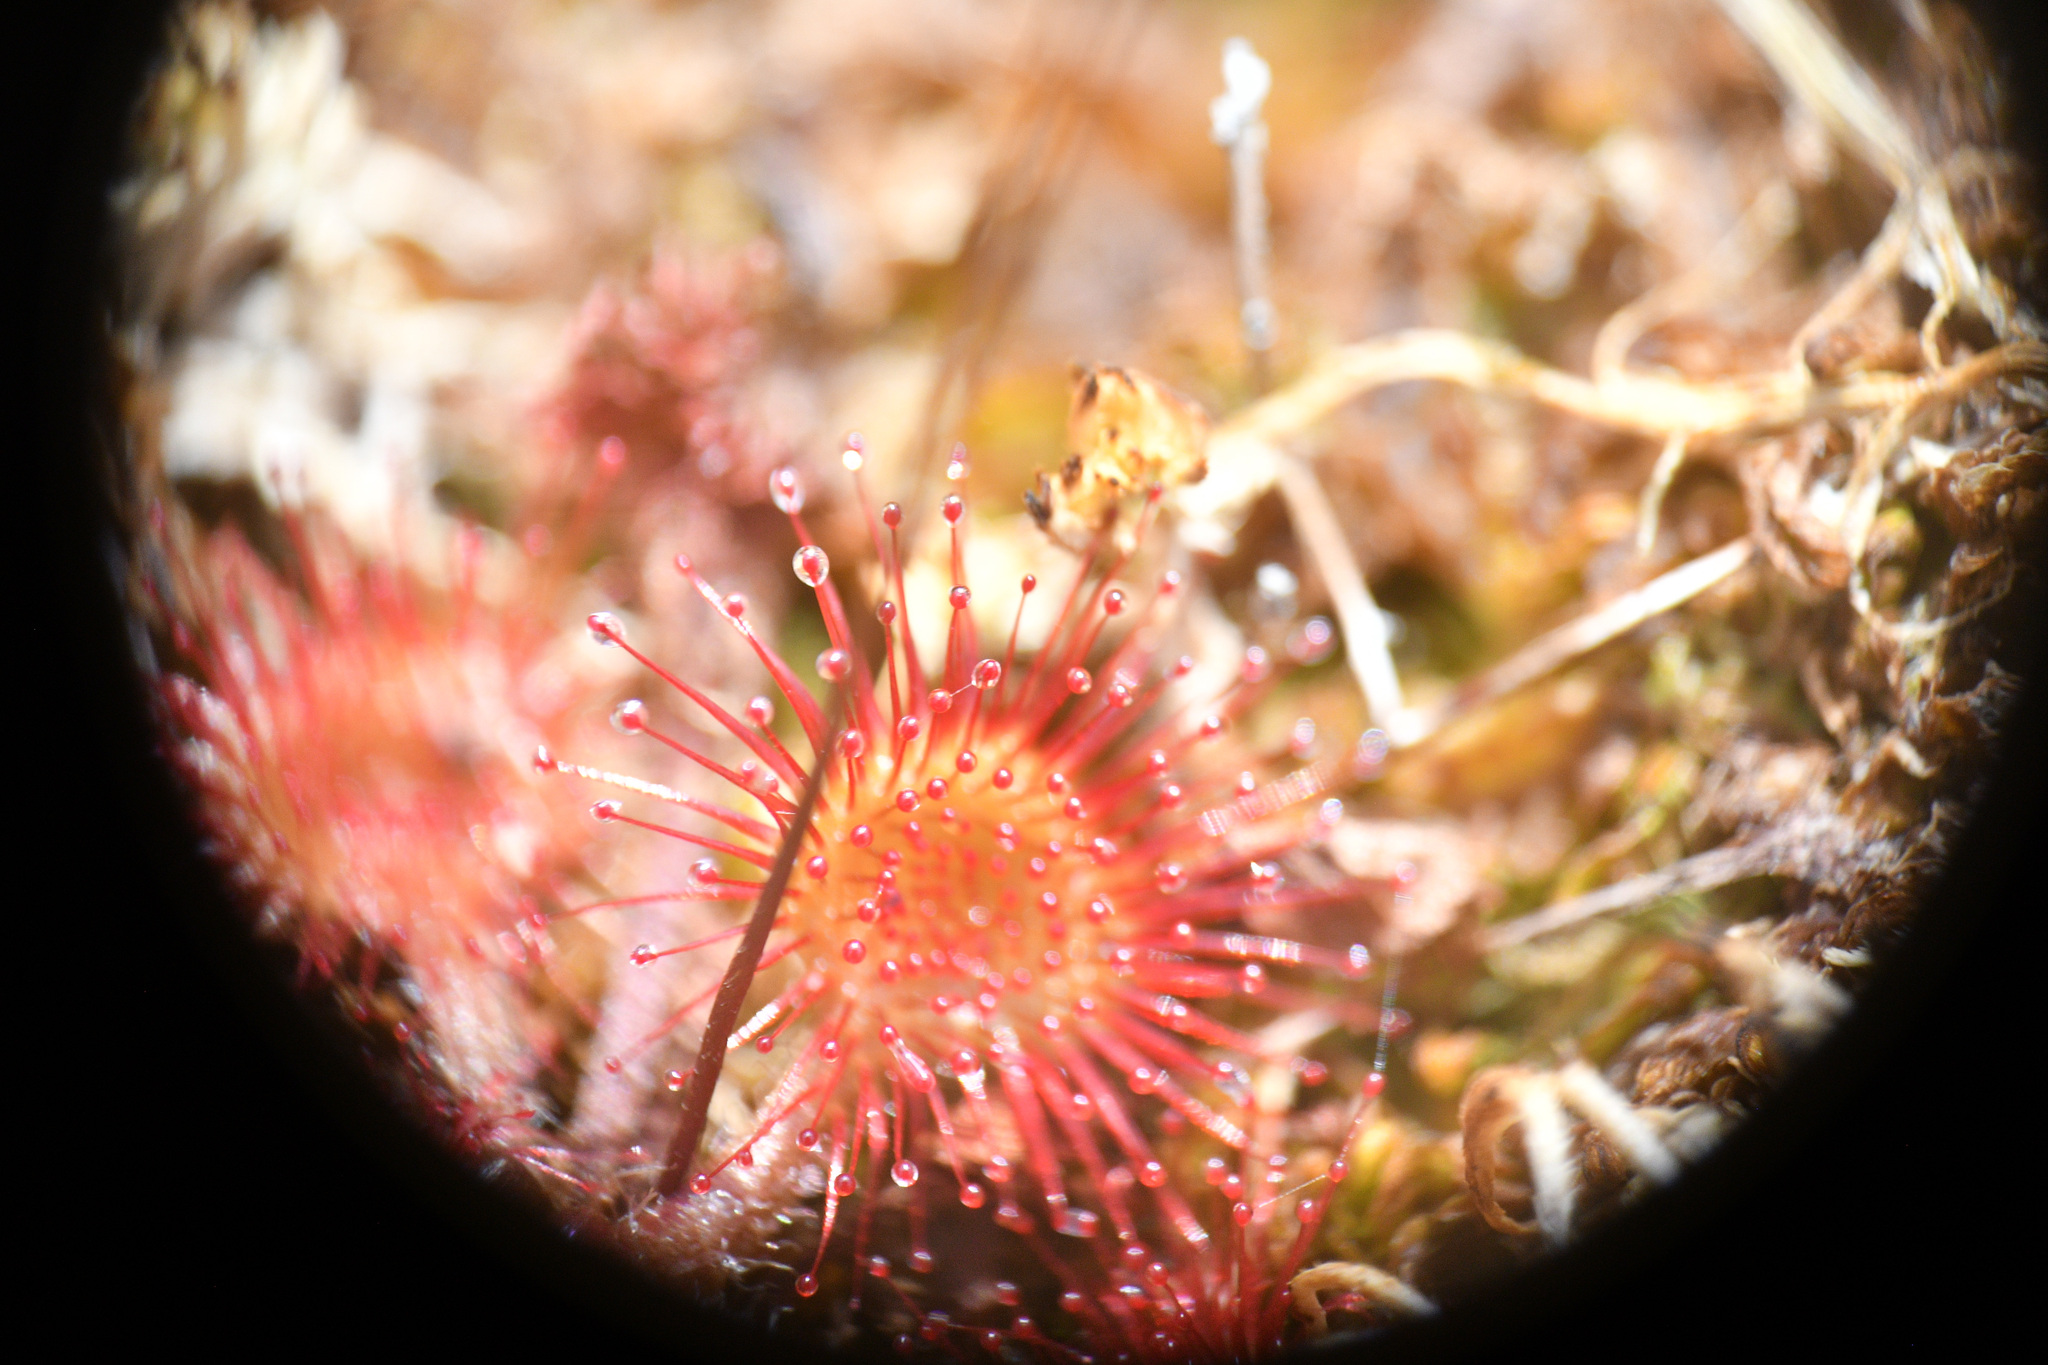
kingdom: Plantae
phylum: Tracheophyta
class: Magnoliopsida
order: Caryophyllales
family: Droseraceae
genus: Drosera
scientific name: Drosera rotundifolia
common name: Round-leaved sundew
